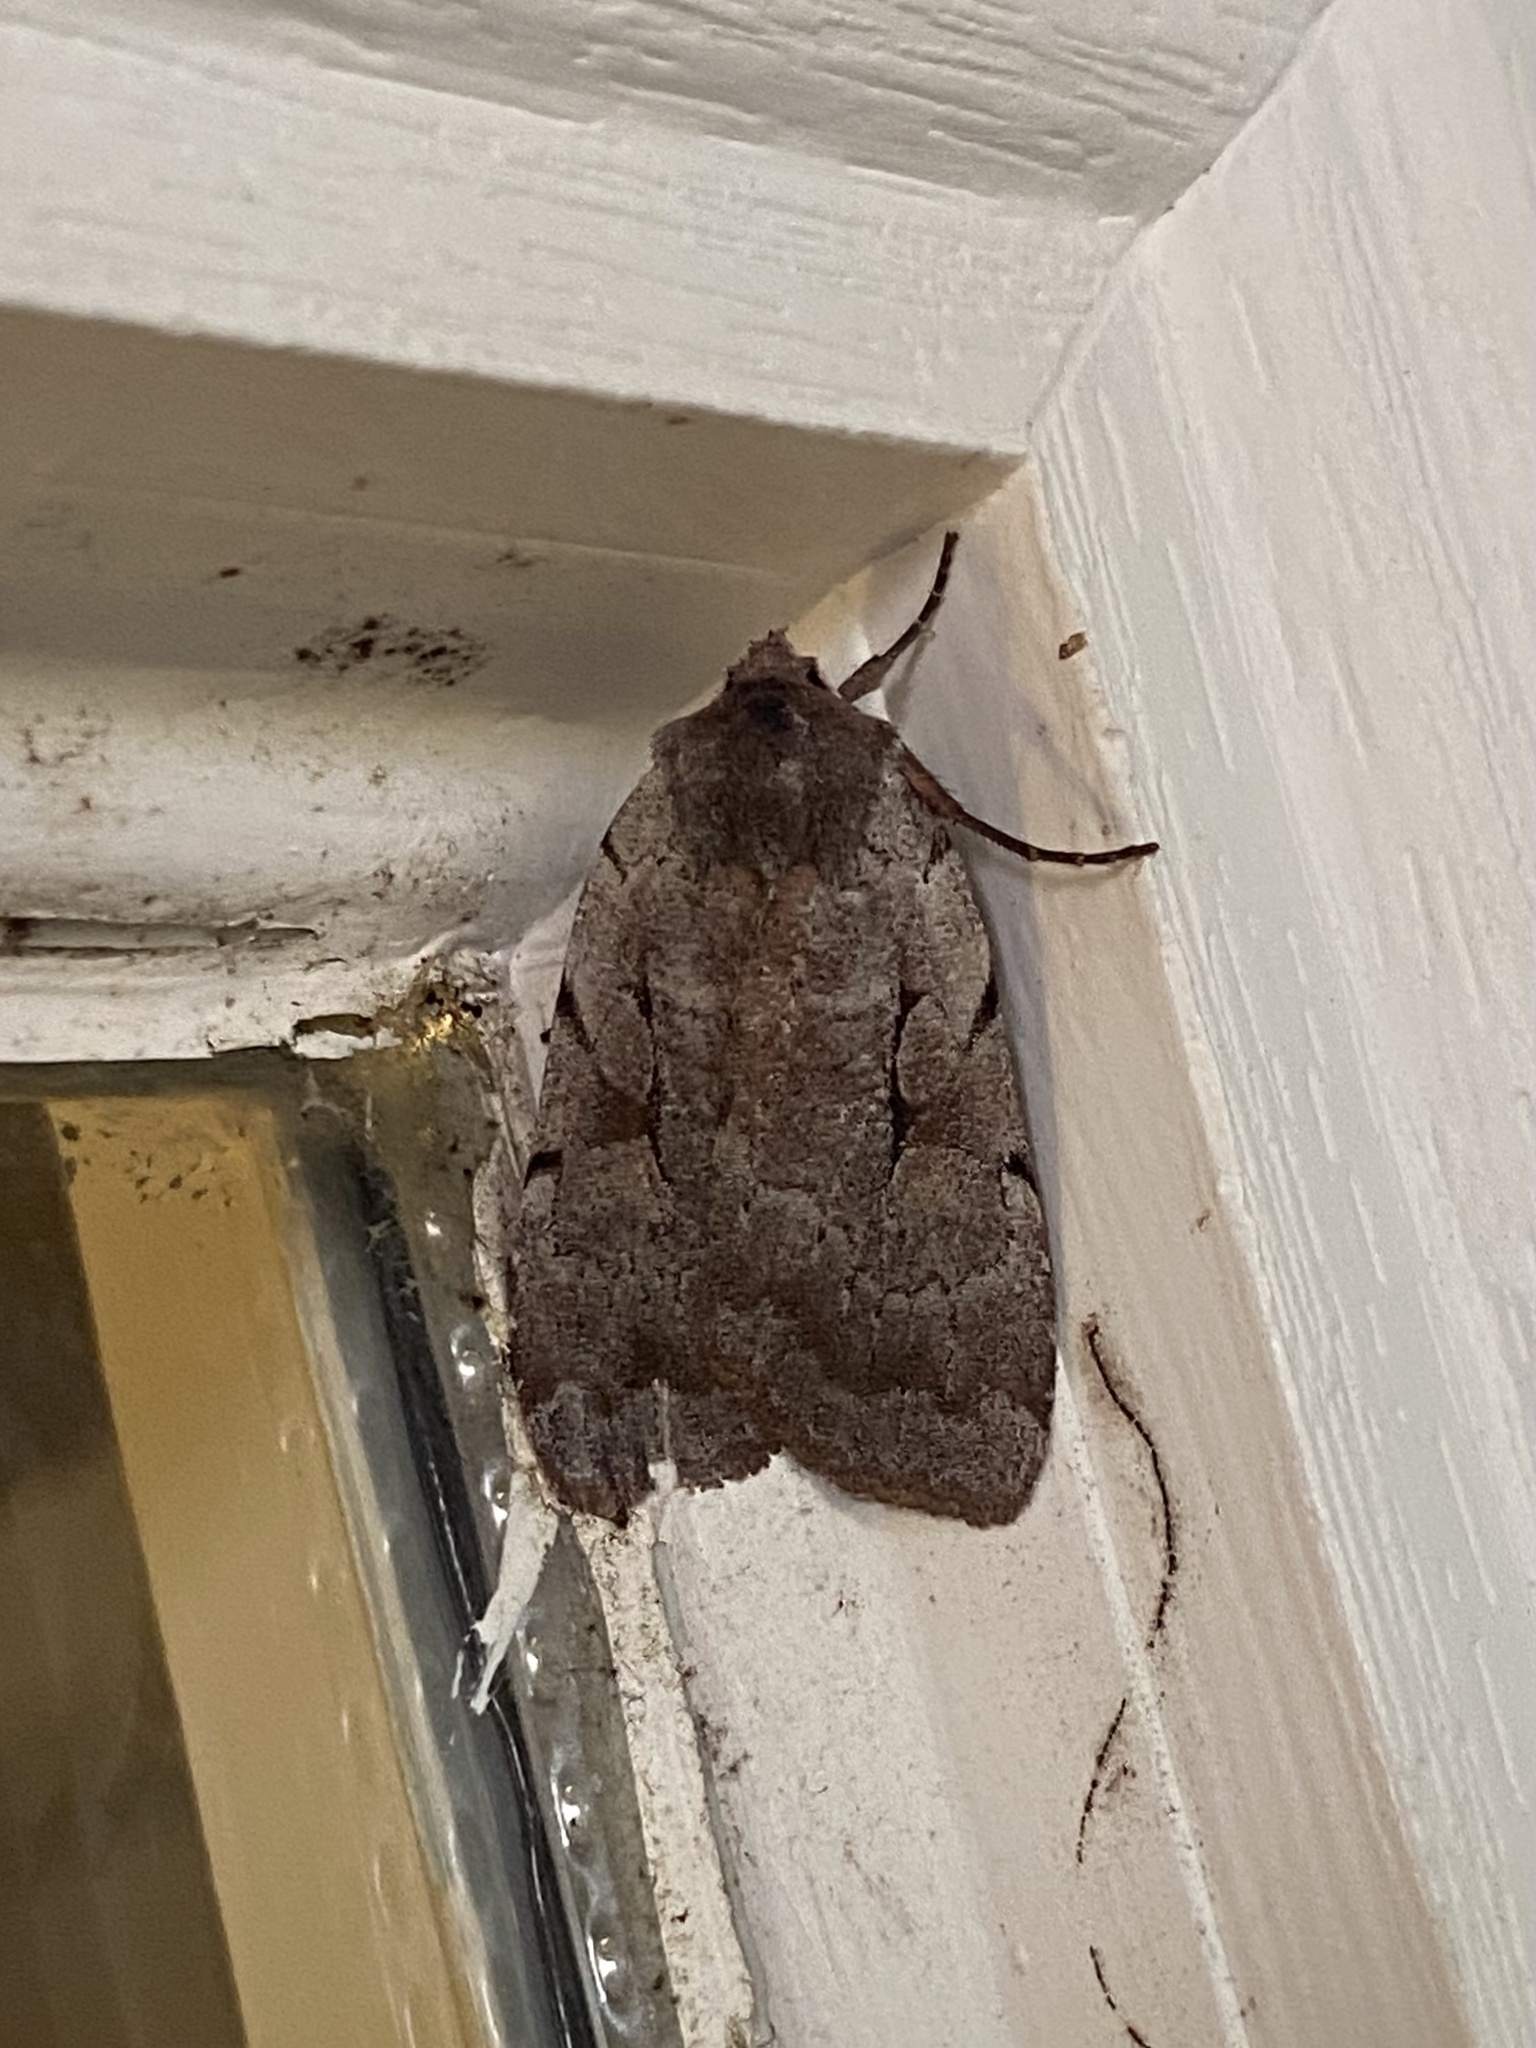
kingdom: Animalia
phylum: Arthropoda
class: Insecta
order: Lepidoptera
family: Noctuidae
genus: Xestia
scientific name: Xestia elimata
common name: Chameleon caterpillar
